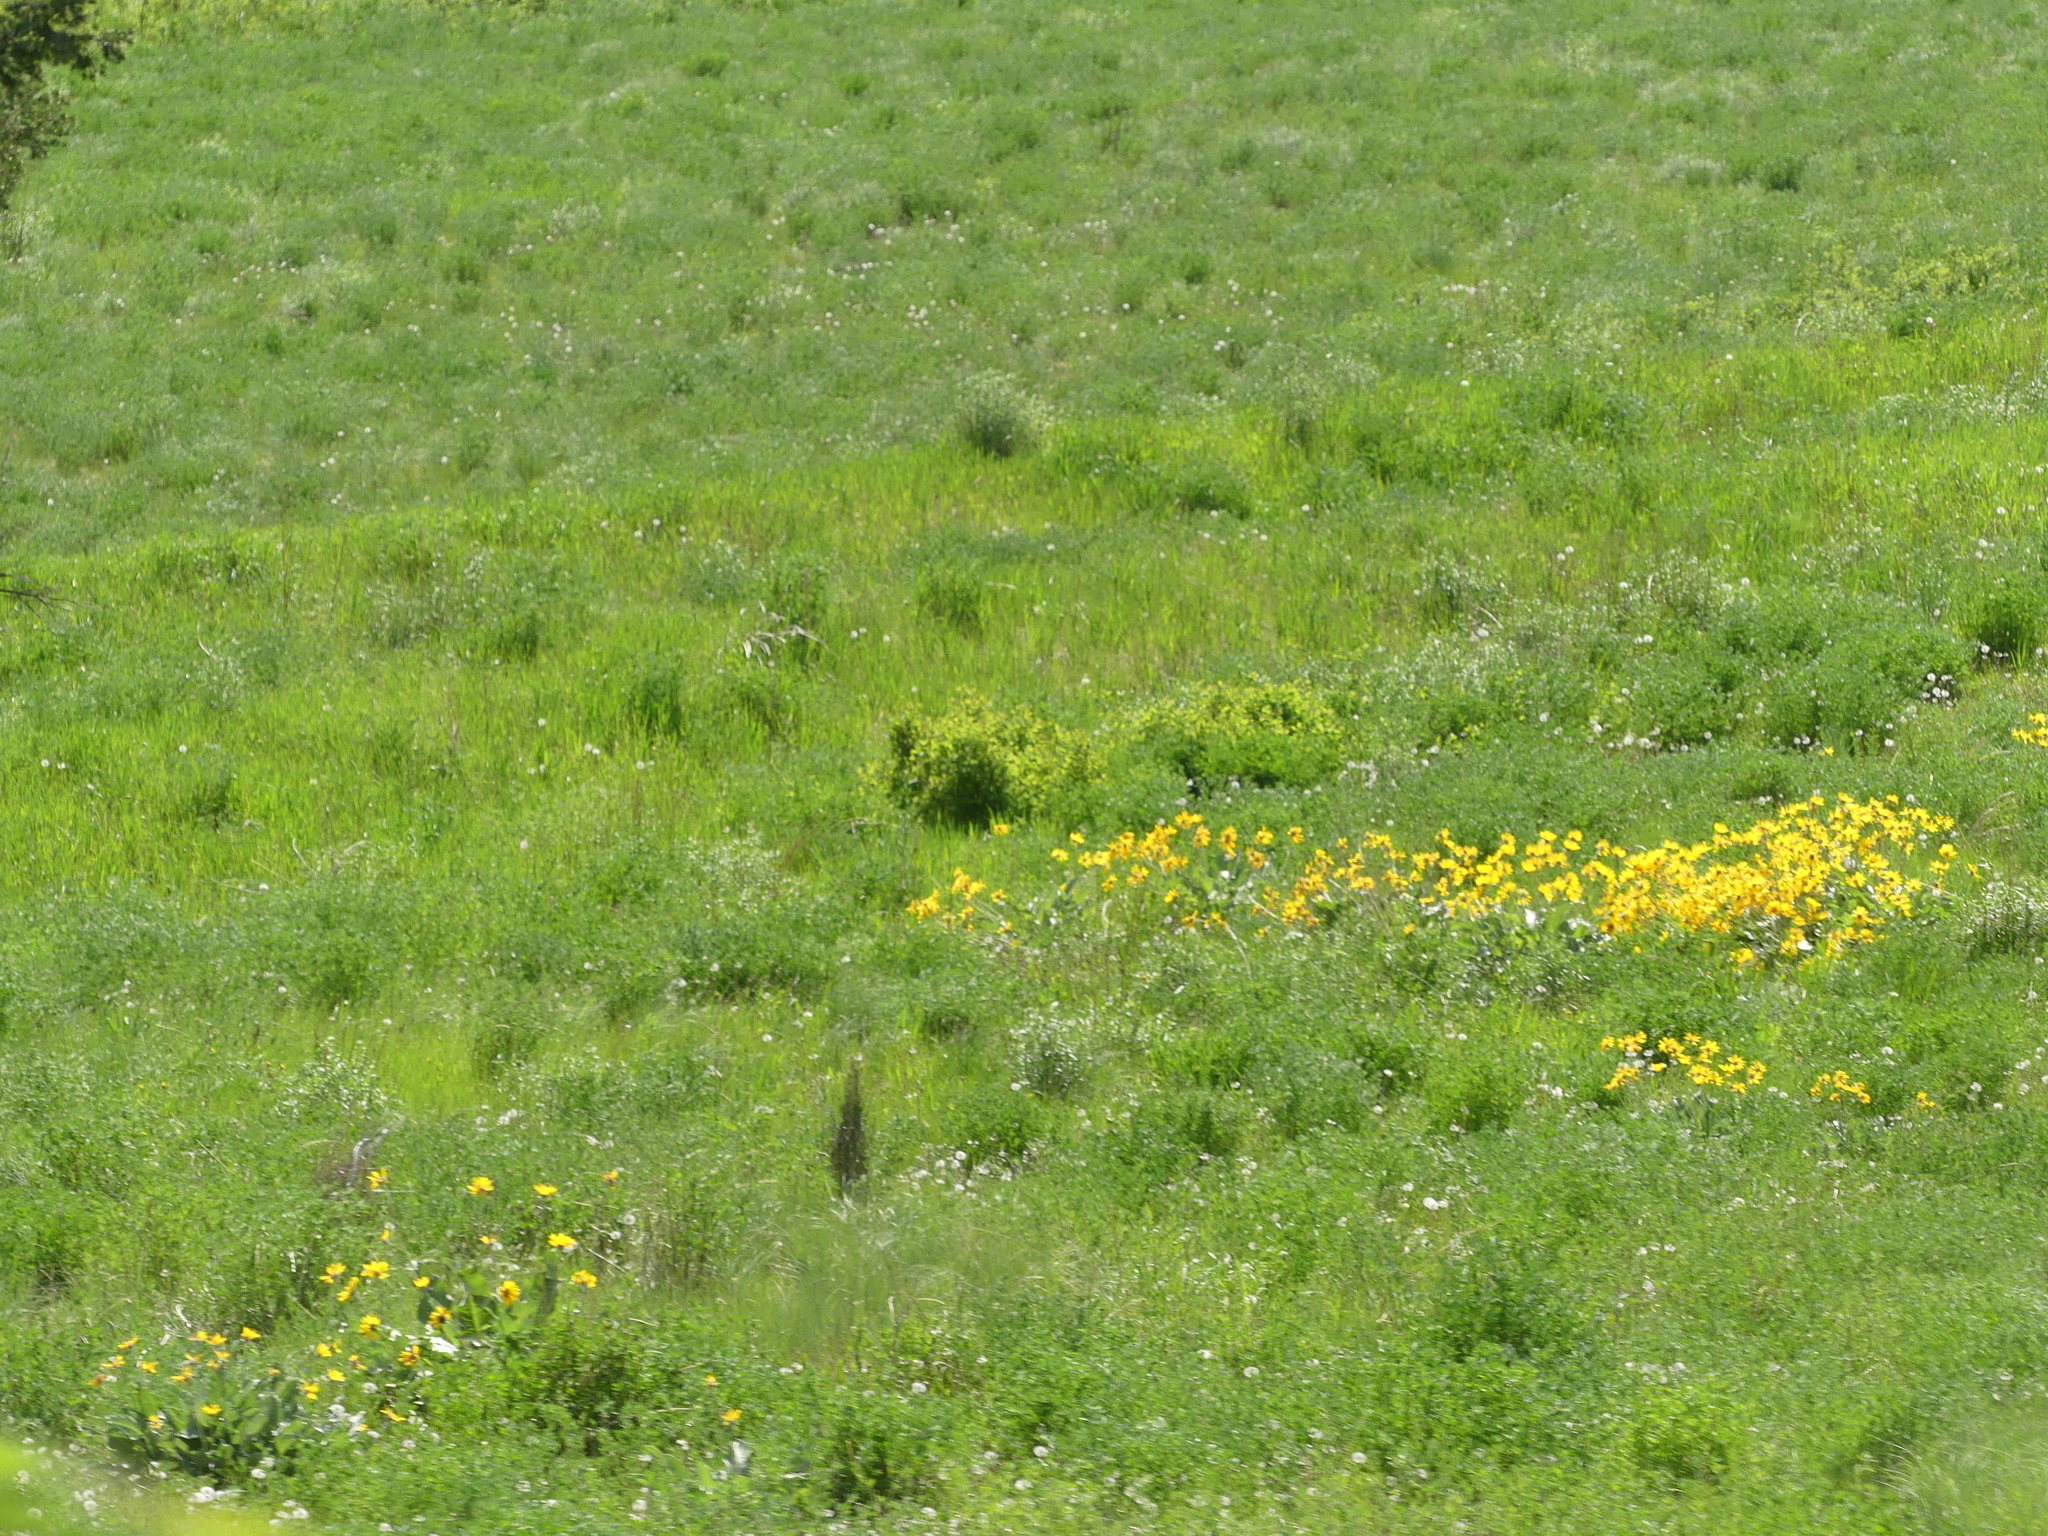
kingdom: Plantae
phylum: Tracheophyta
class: Magnoliopsida
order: Asterales
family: Asteraceae
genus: Wyethia
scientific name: Wyethia sagittata
